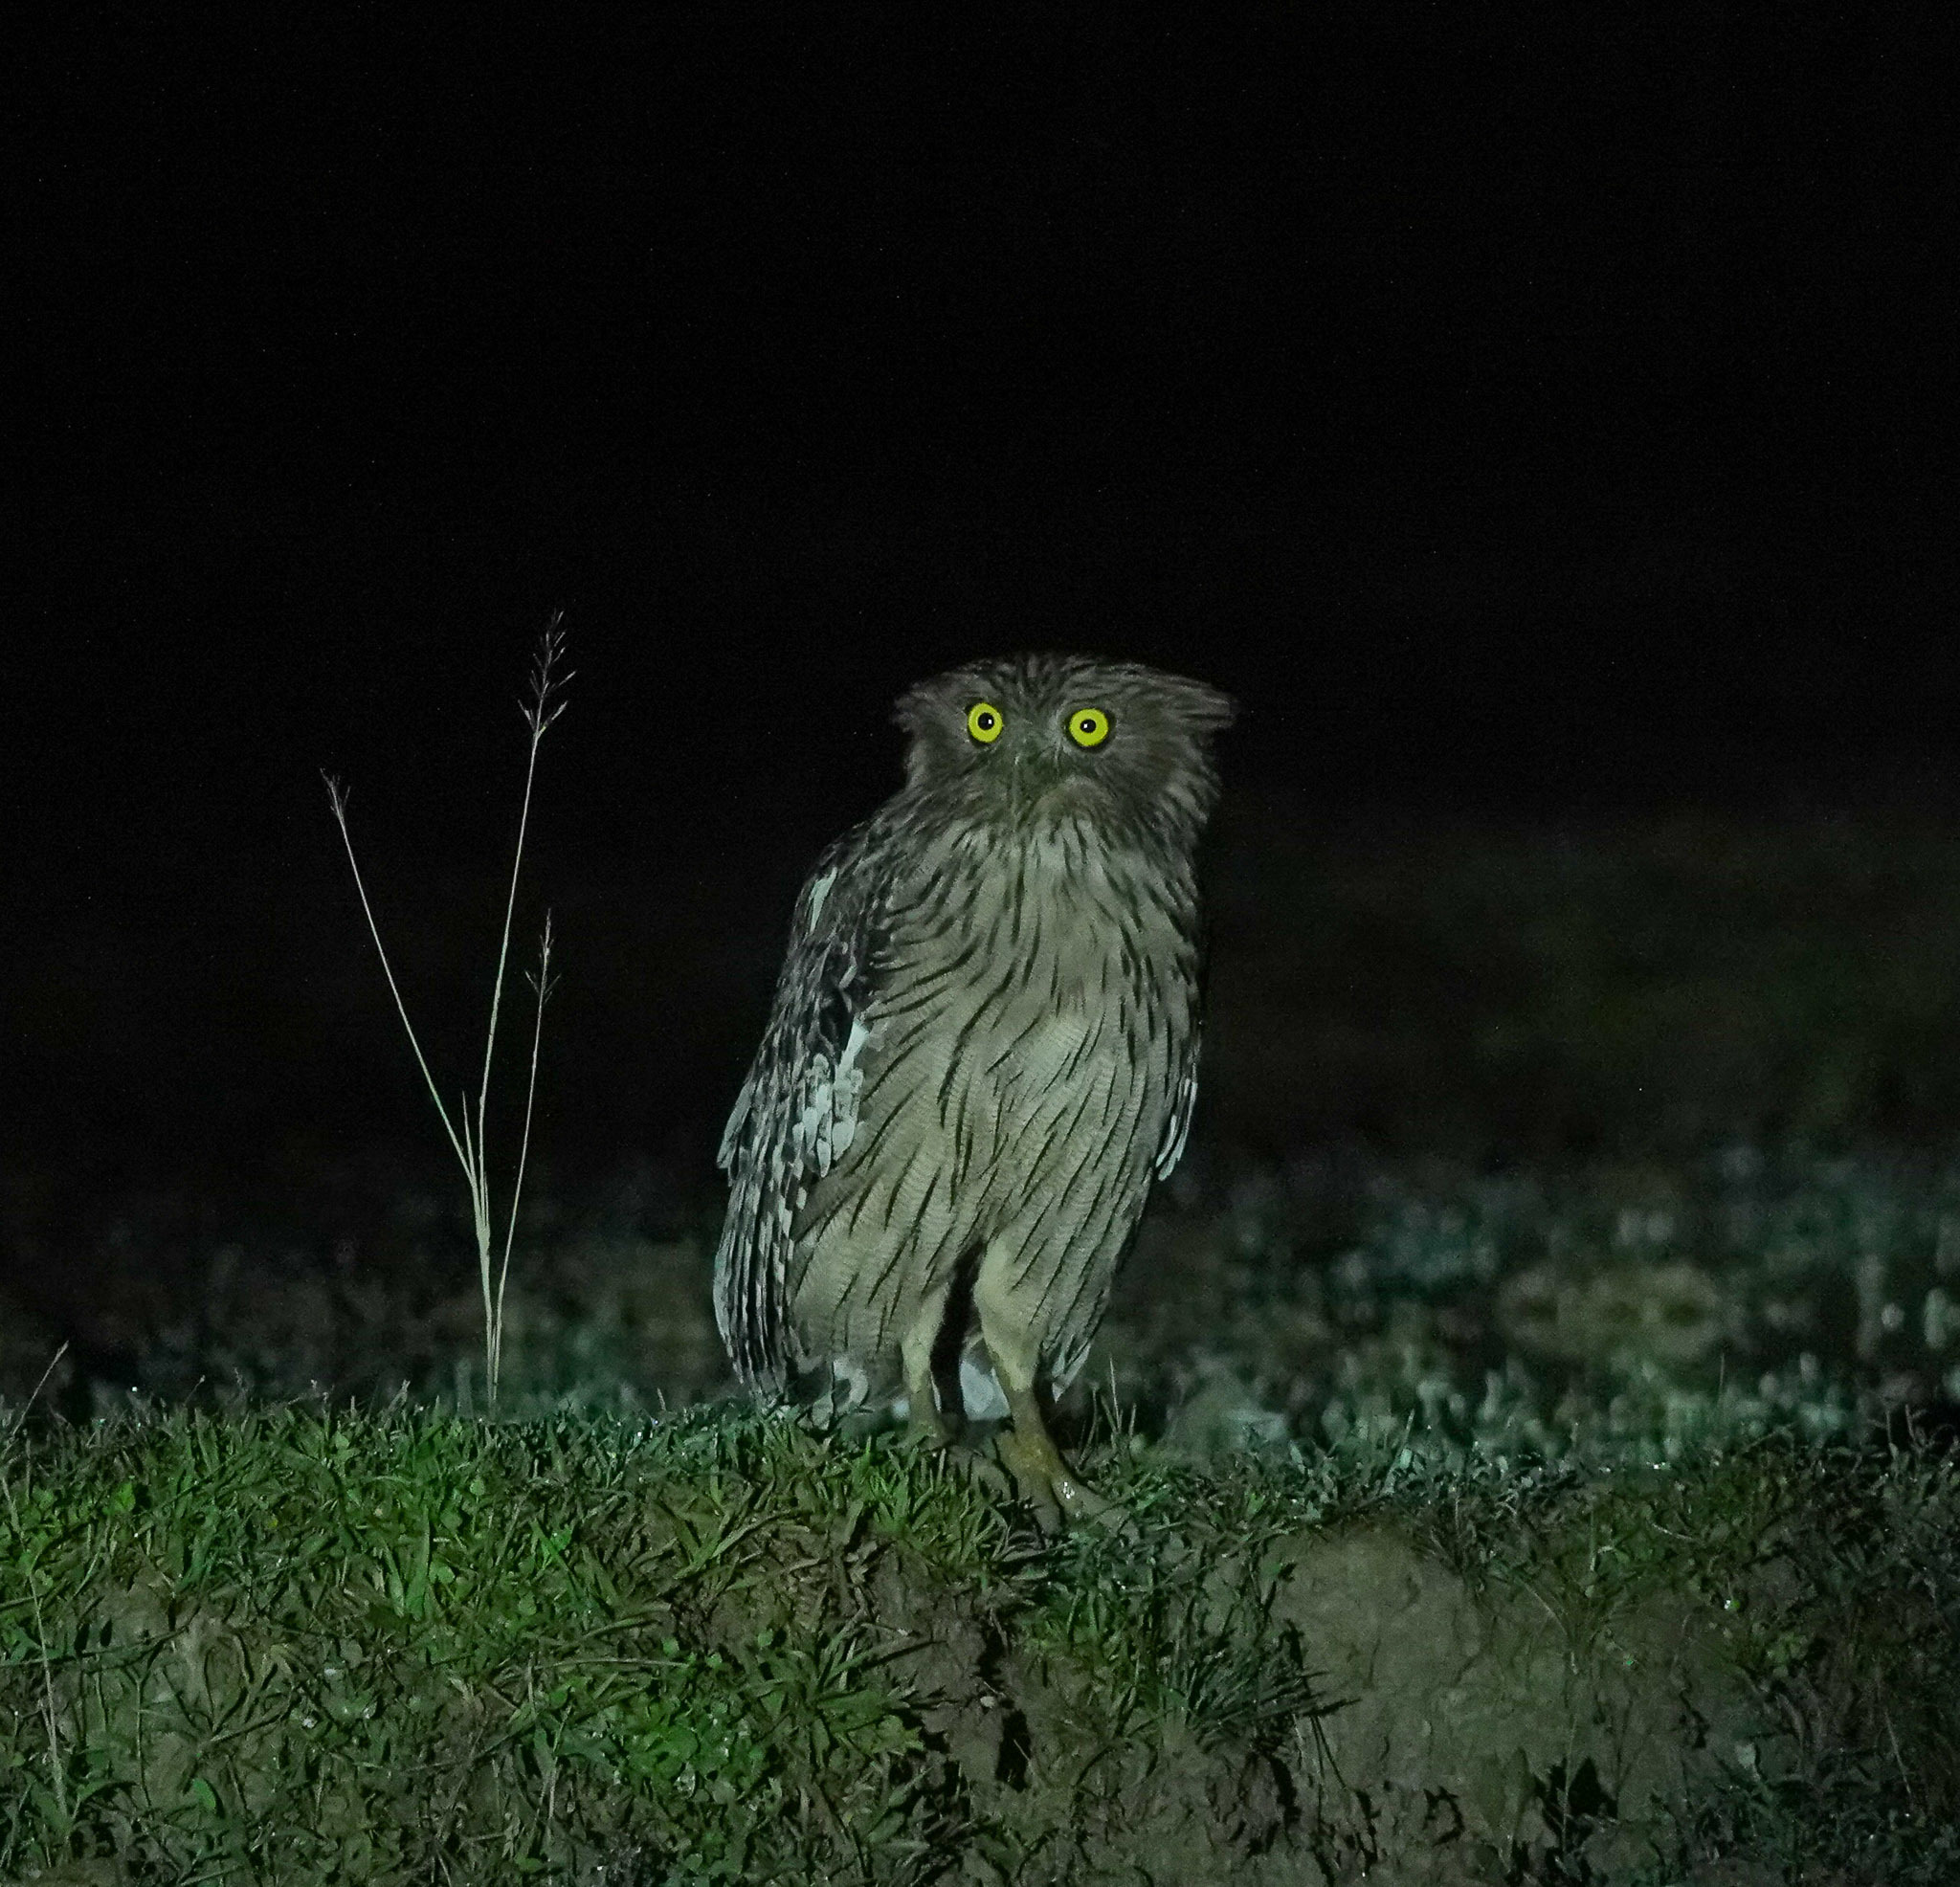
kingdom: Animalia
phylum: Chordata
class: Aves
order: Strigiformes
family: Strigidae
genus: Ketupa
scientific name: Ketupa zeylonensis
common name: Brown fish owl
